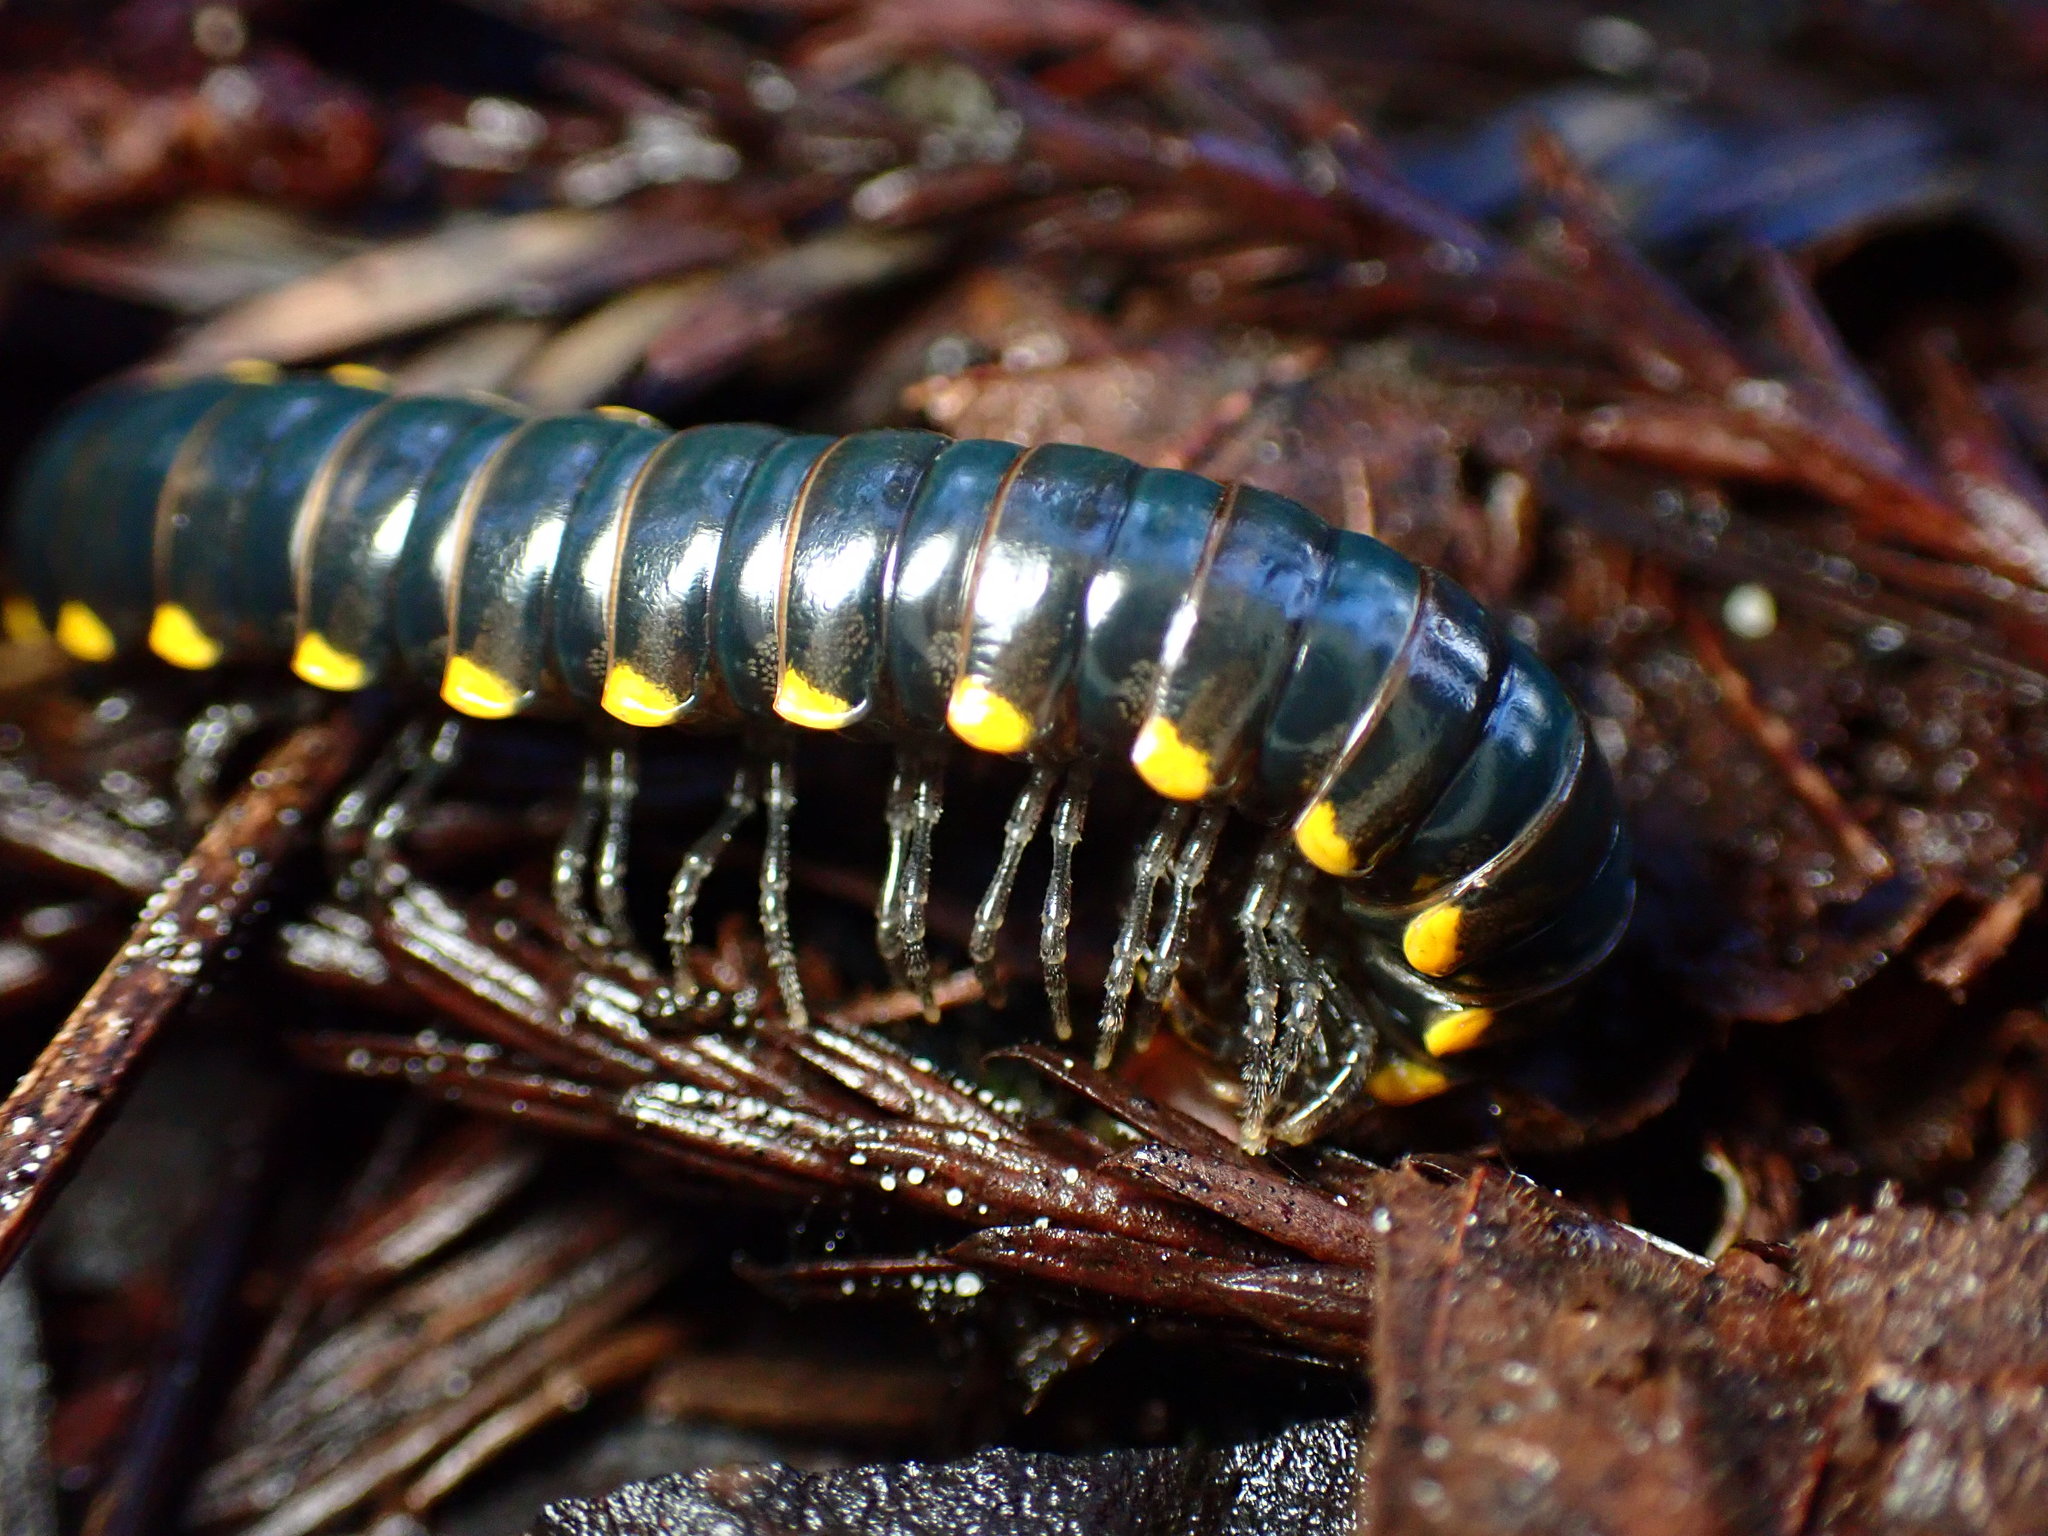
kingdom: Animalia
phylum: Arthropoda
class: Diplopoda
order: Polydesmida
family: Xystodesmidae
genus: Harpaphe
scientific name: Harpaphe haydeniana
